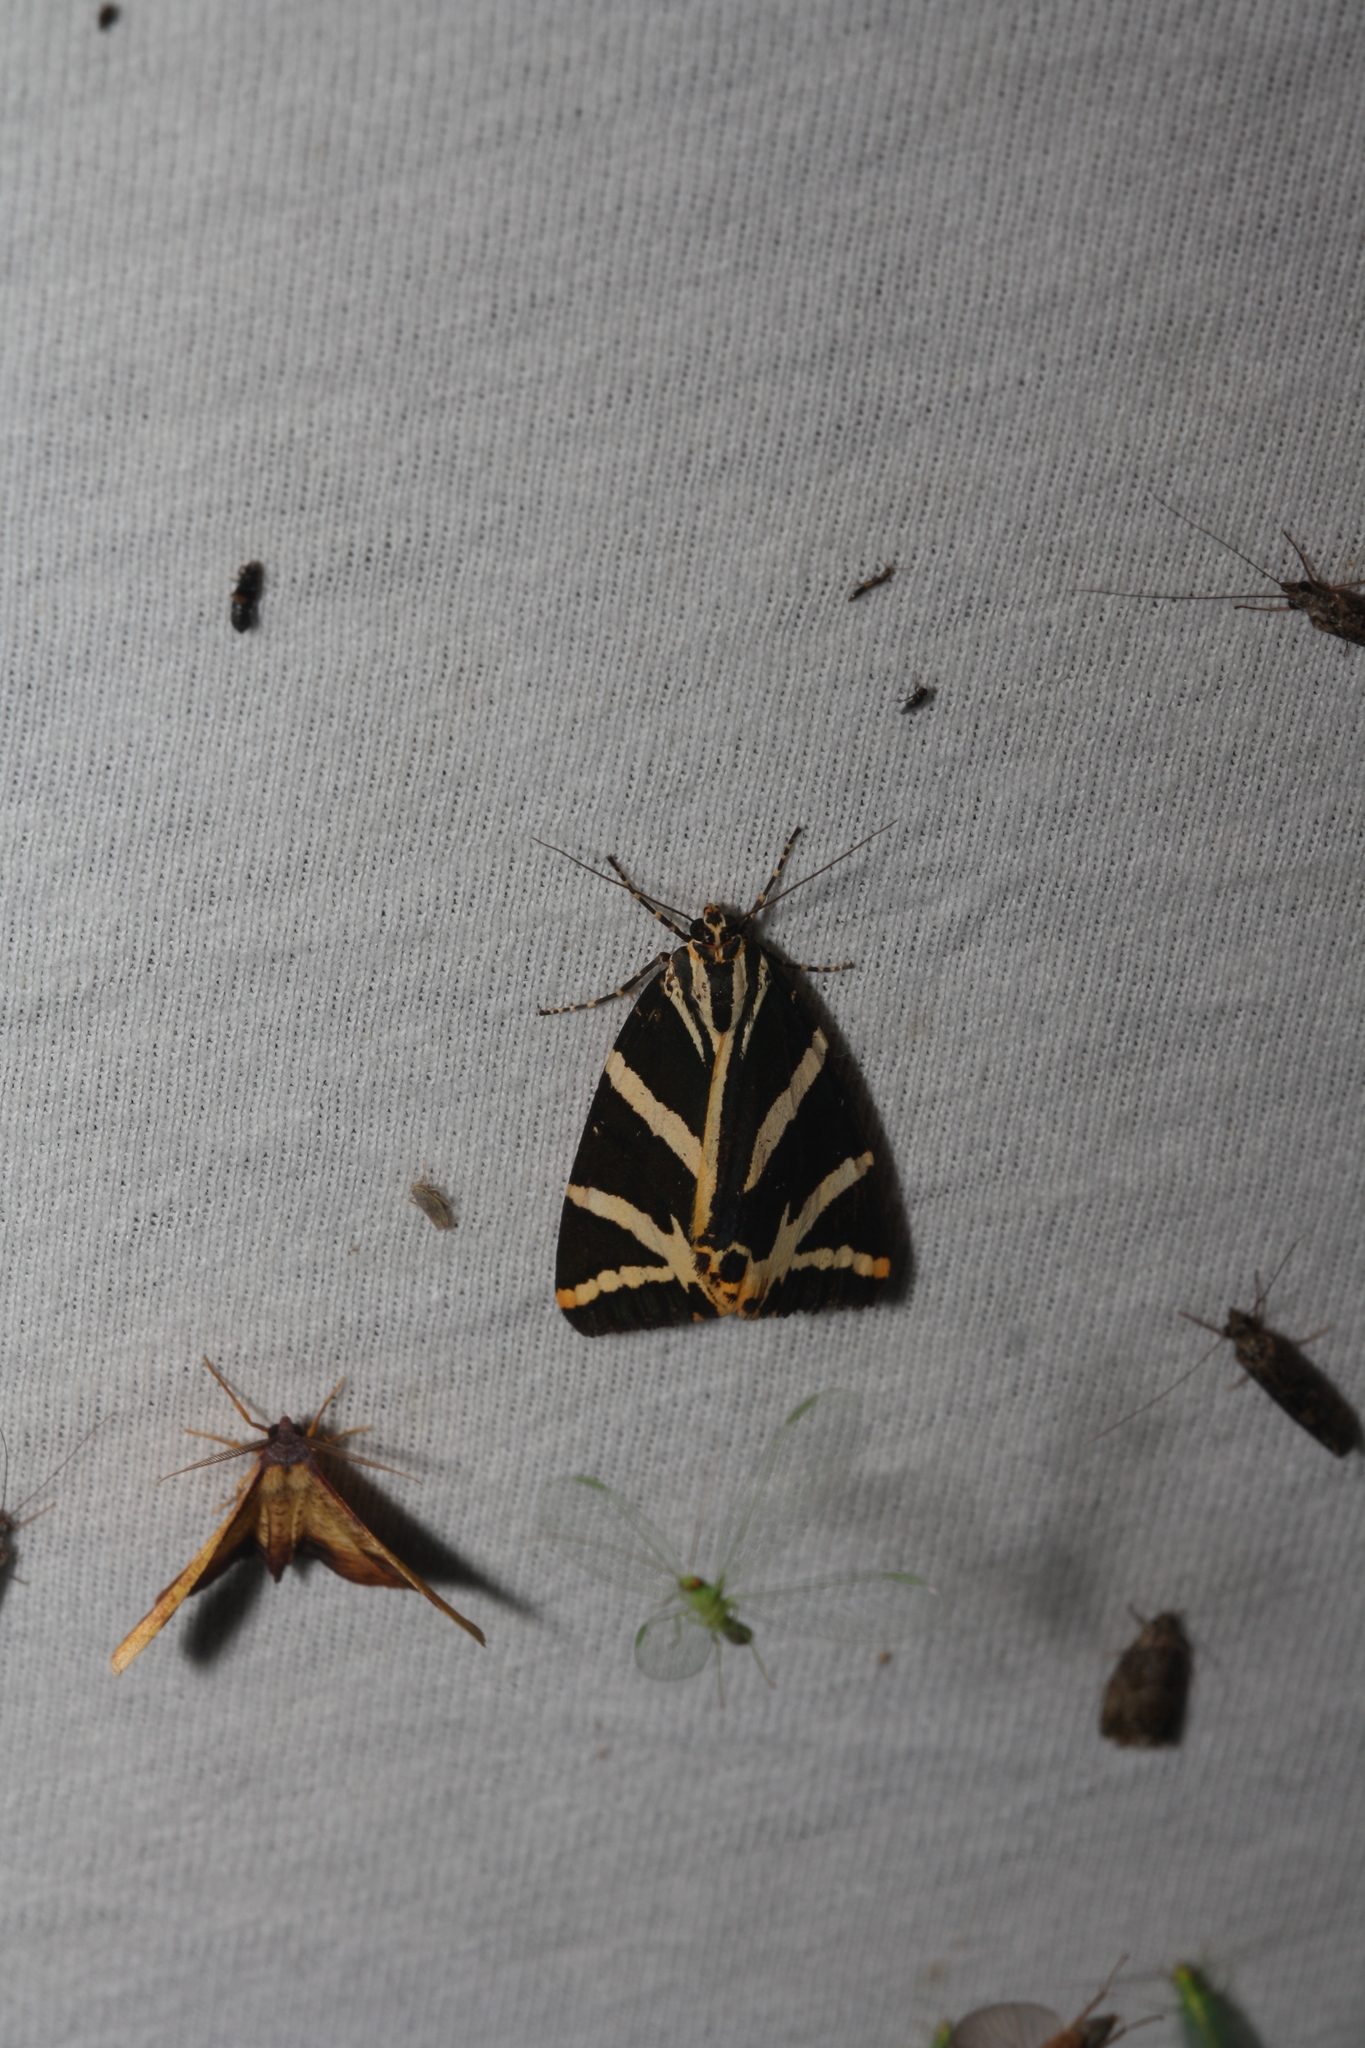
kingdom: Animalia
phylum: Arthropoda
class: Insecta
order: Lepidoptera
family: Erebidae
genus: Euplagia
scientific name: Euplagia quadripunctaria
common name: Jersey tiger
